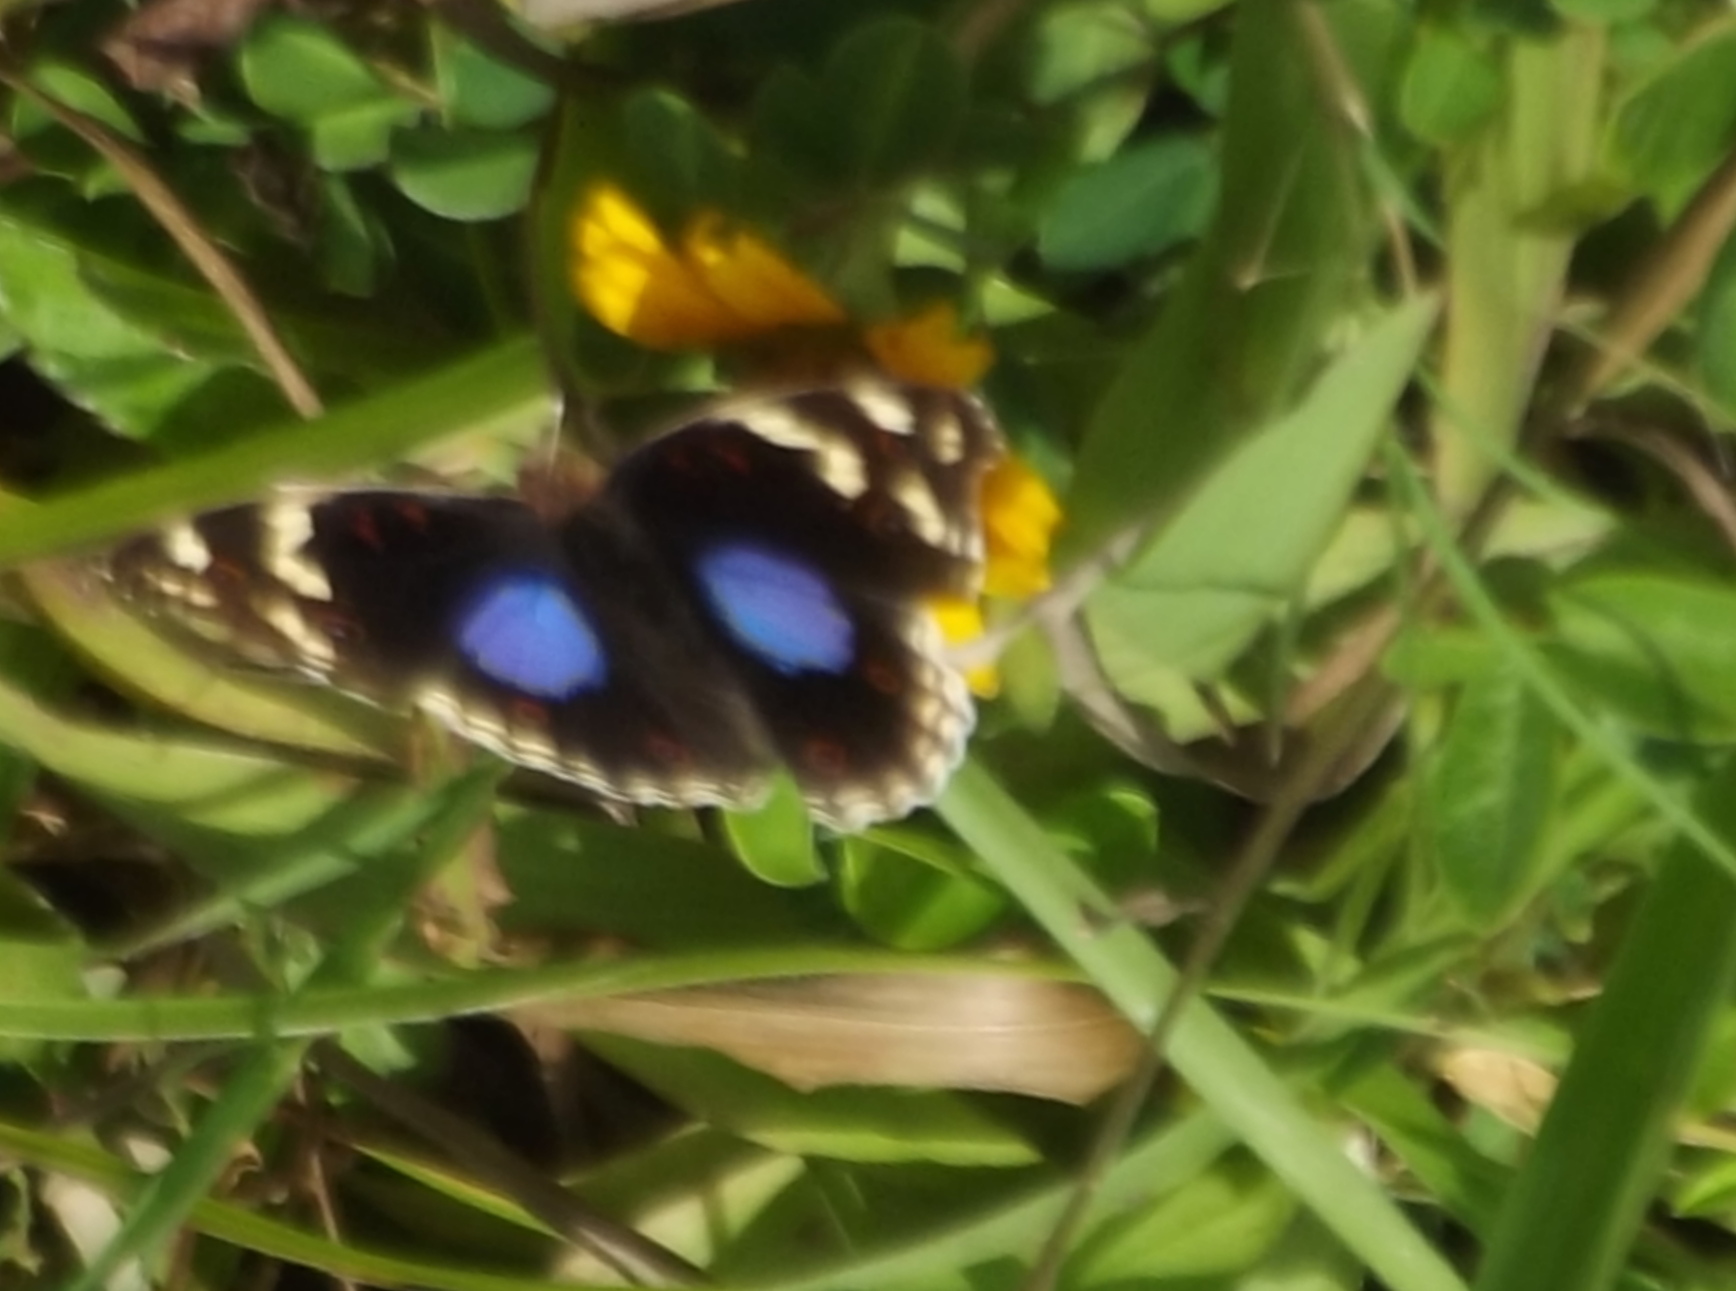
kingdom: Animalia
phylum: Arthropoda
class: Insecta
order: Lepidoptera
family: Nymphalidae
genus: Junonia
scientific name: Junonia oenone
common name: Dark blue pansy
